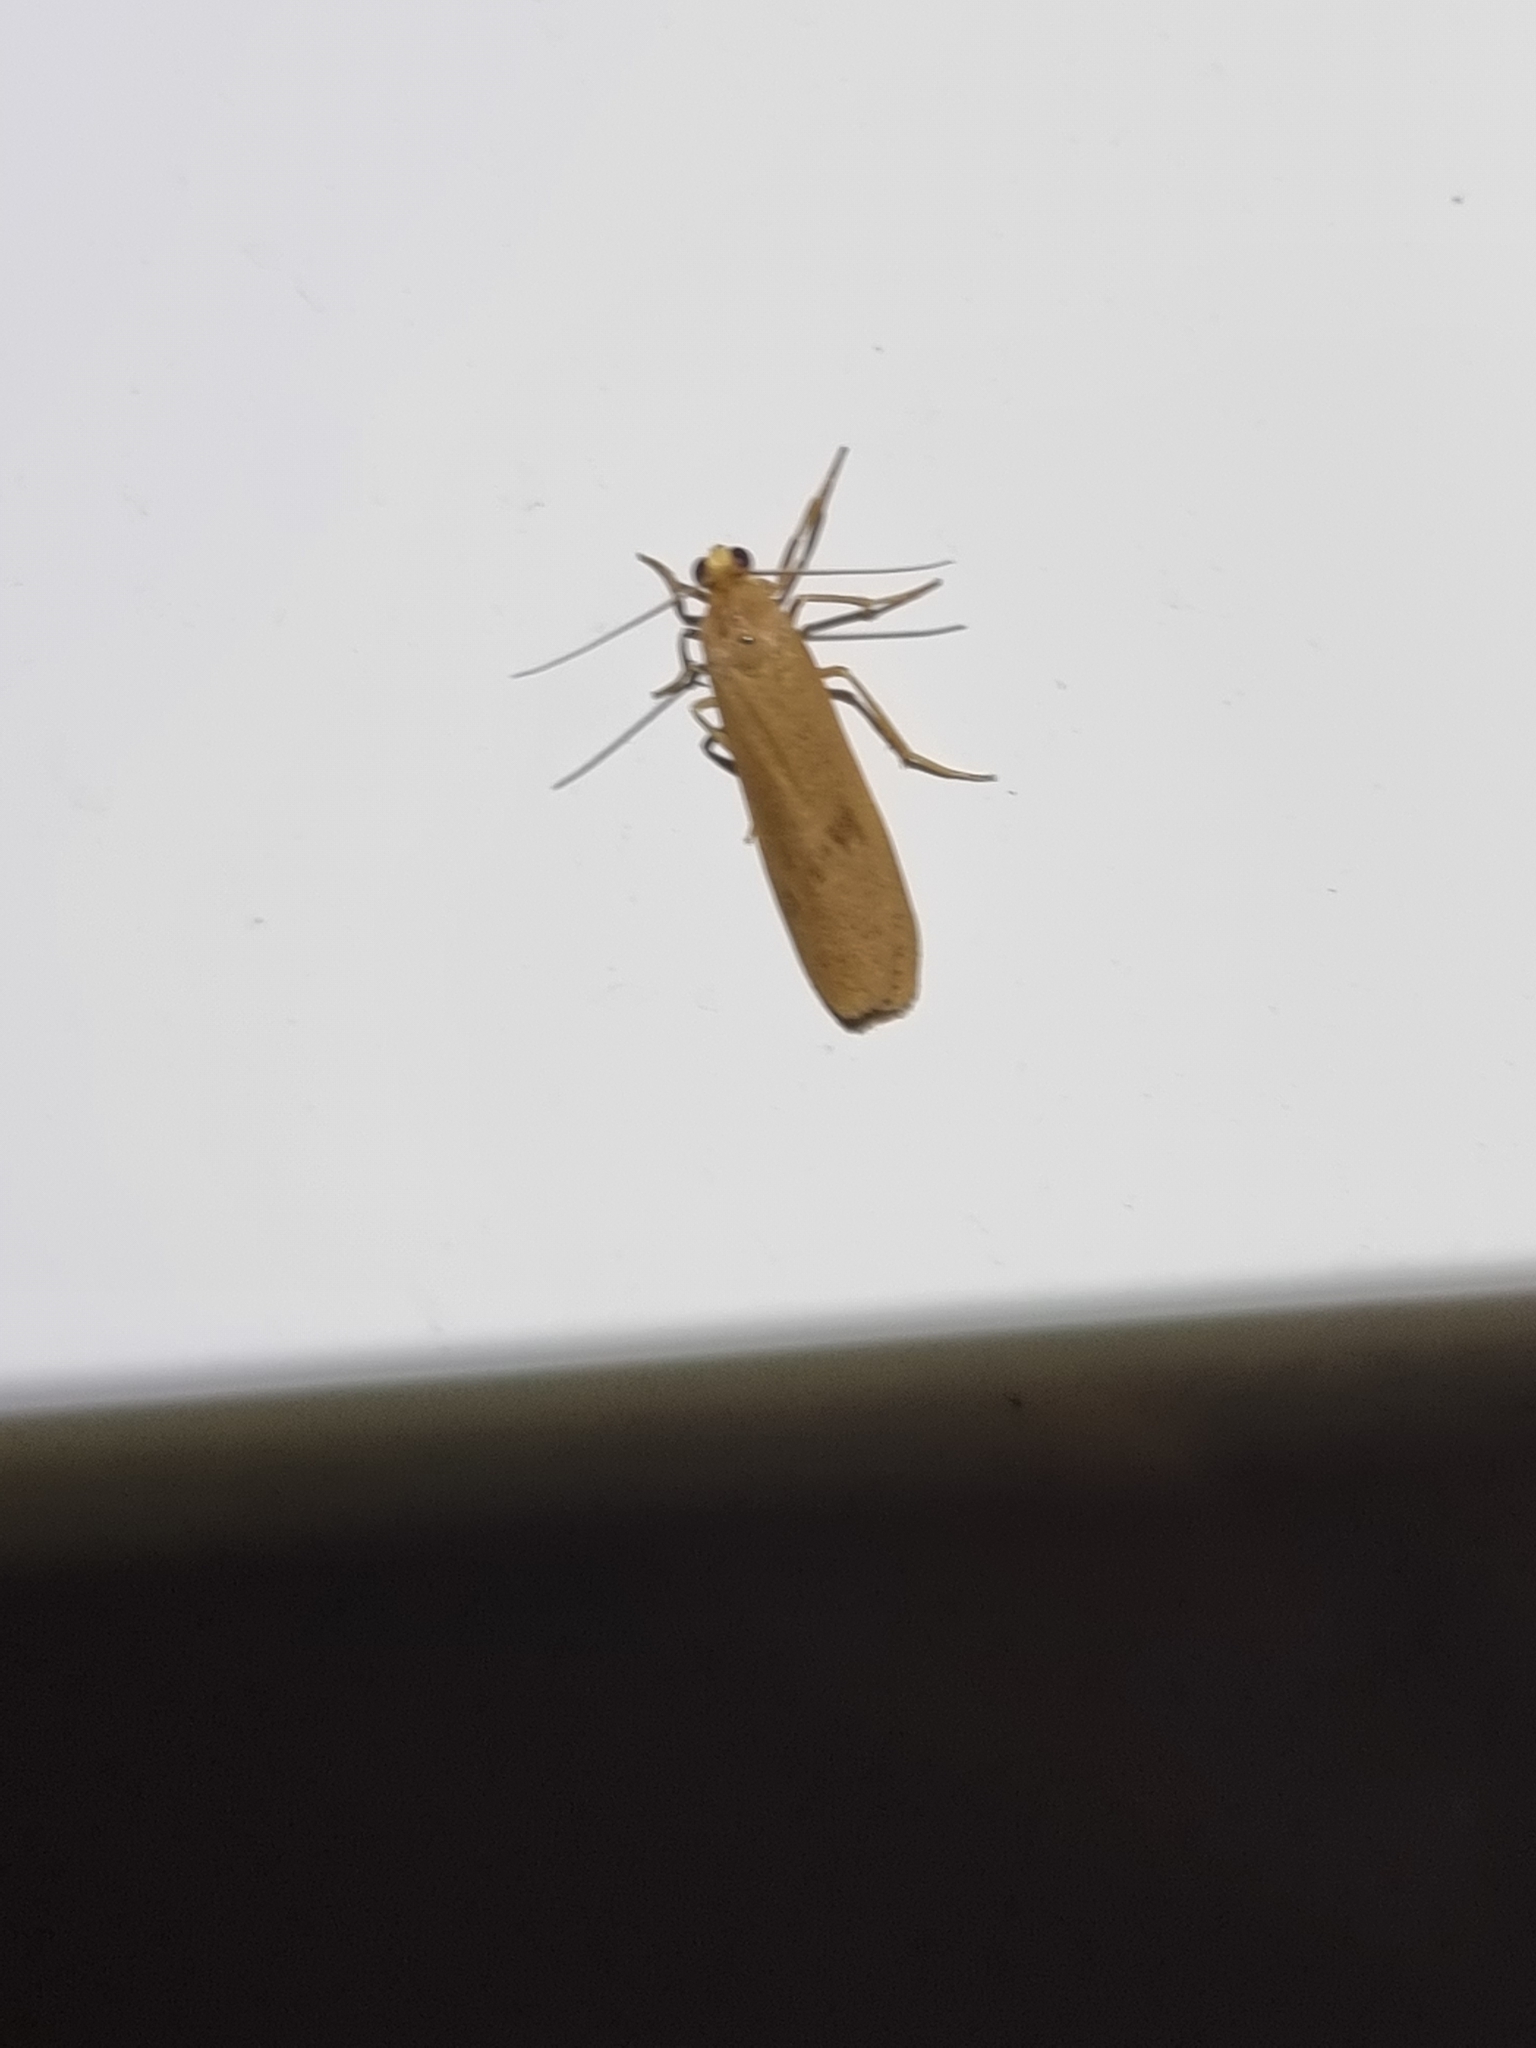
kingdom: Animalia
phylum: Arthropoda
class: Insecta
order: Lepidoptera
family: Erebidae
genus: Scoliacma
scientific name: Scoliacma nana
